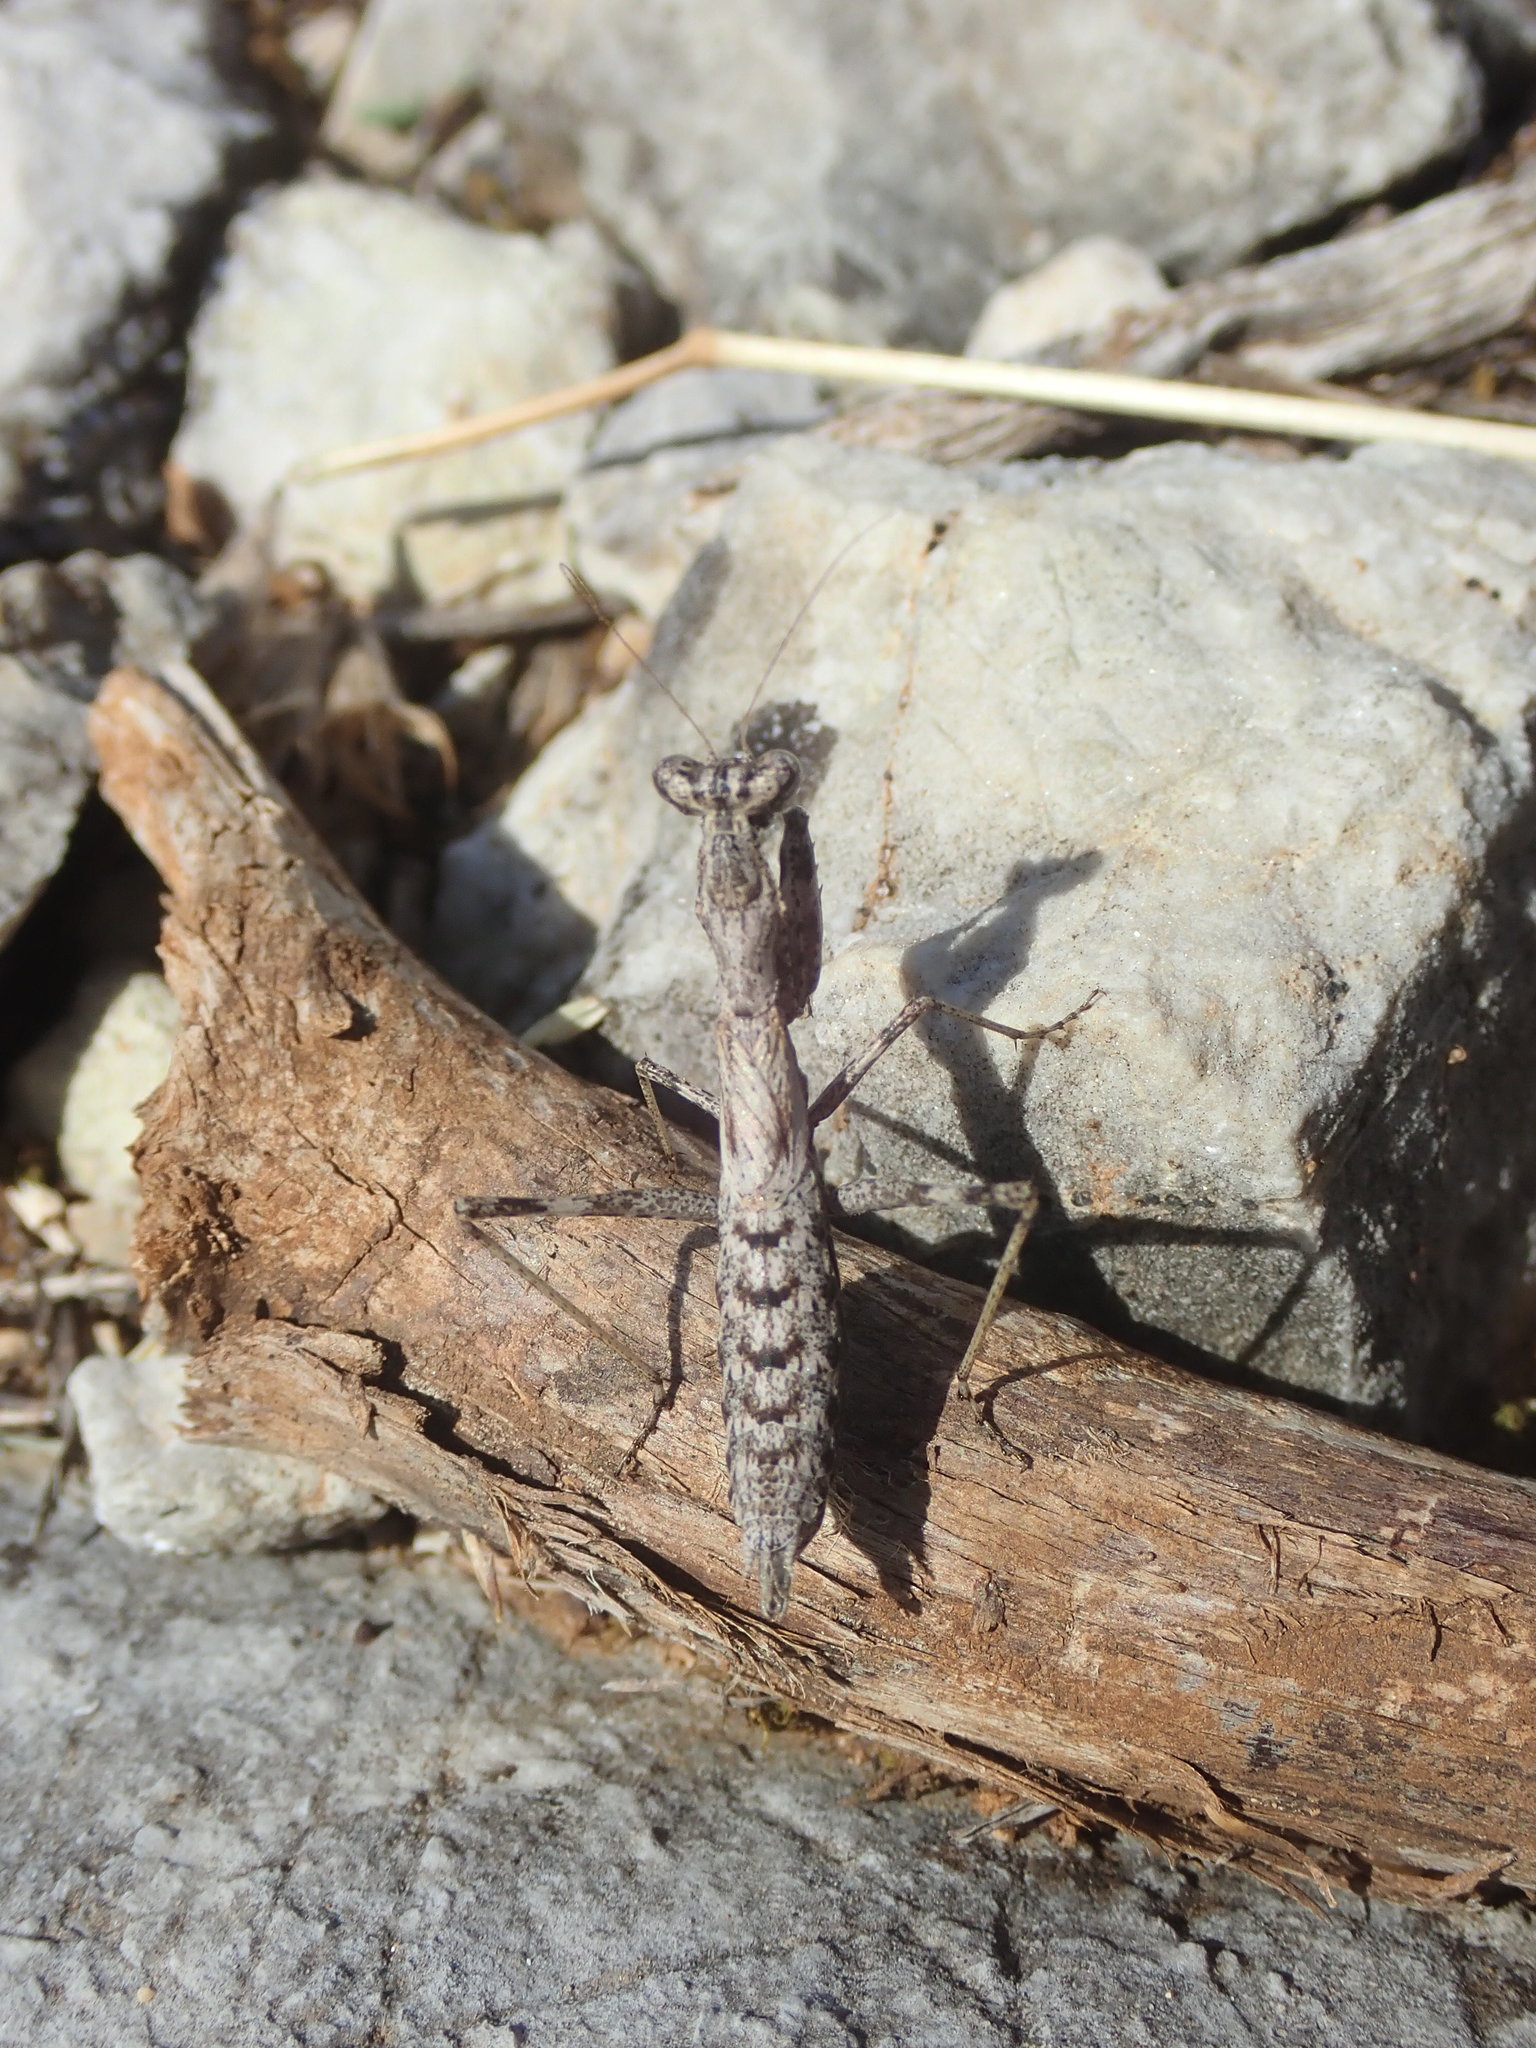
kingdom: Animalia
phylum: Arthropoda
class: Insecta
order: Mantodea
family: Amelidae
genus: Ameles
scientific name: Ameles decolor
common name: Dwarf mantis
